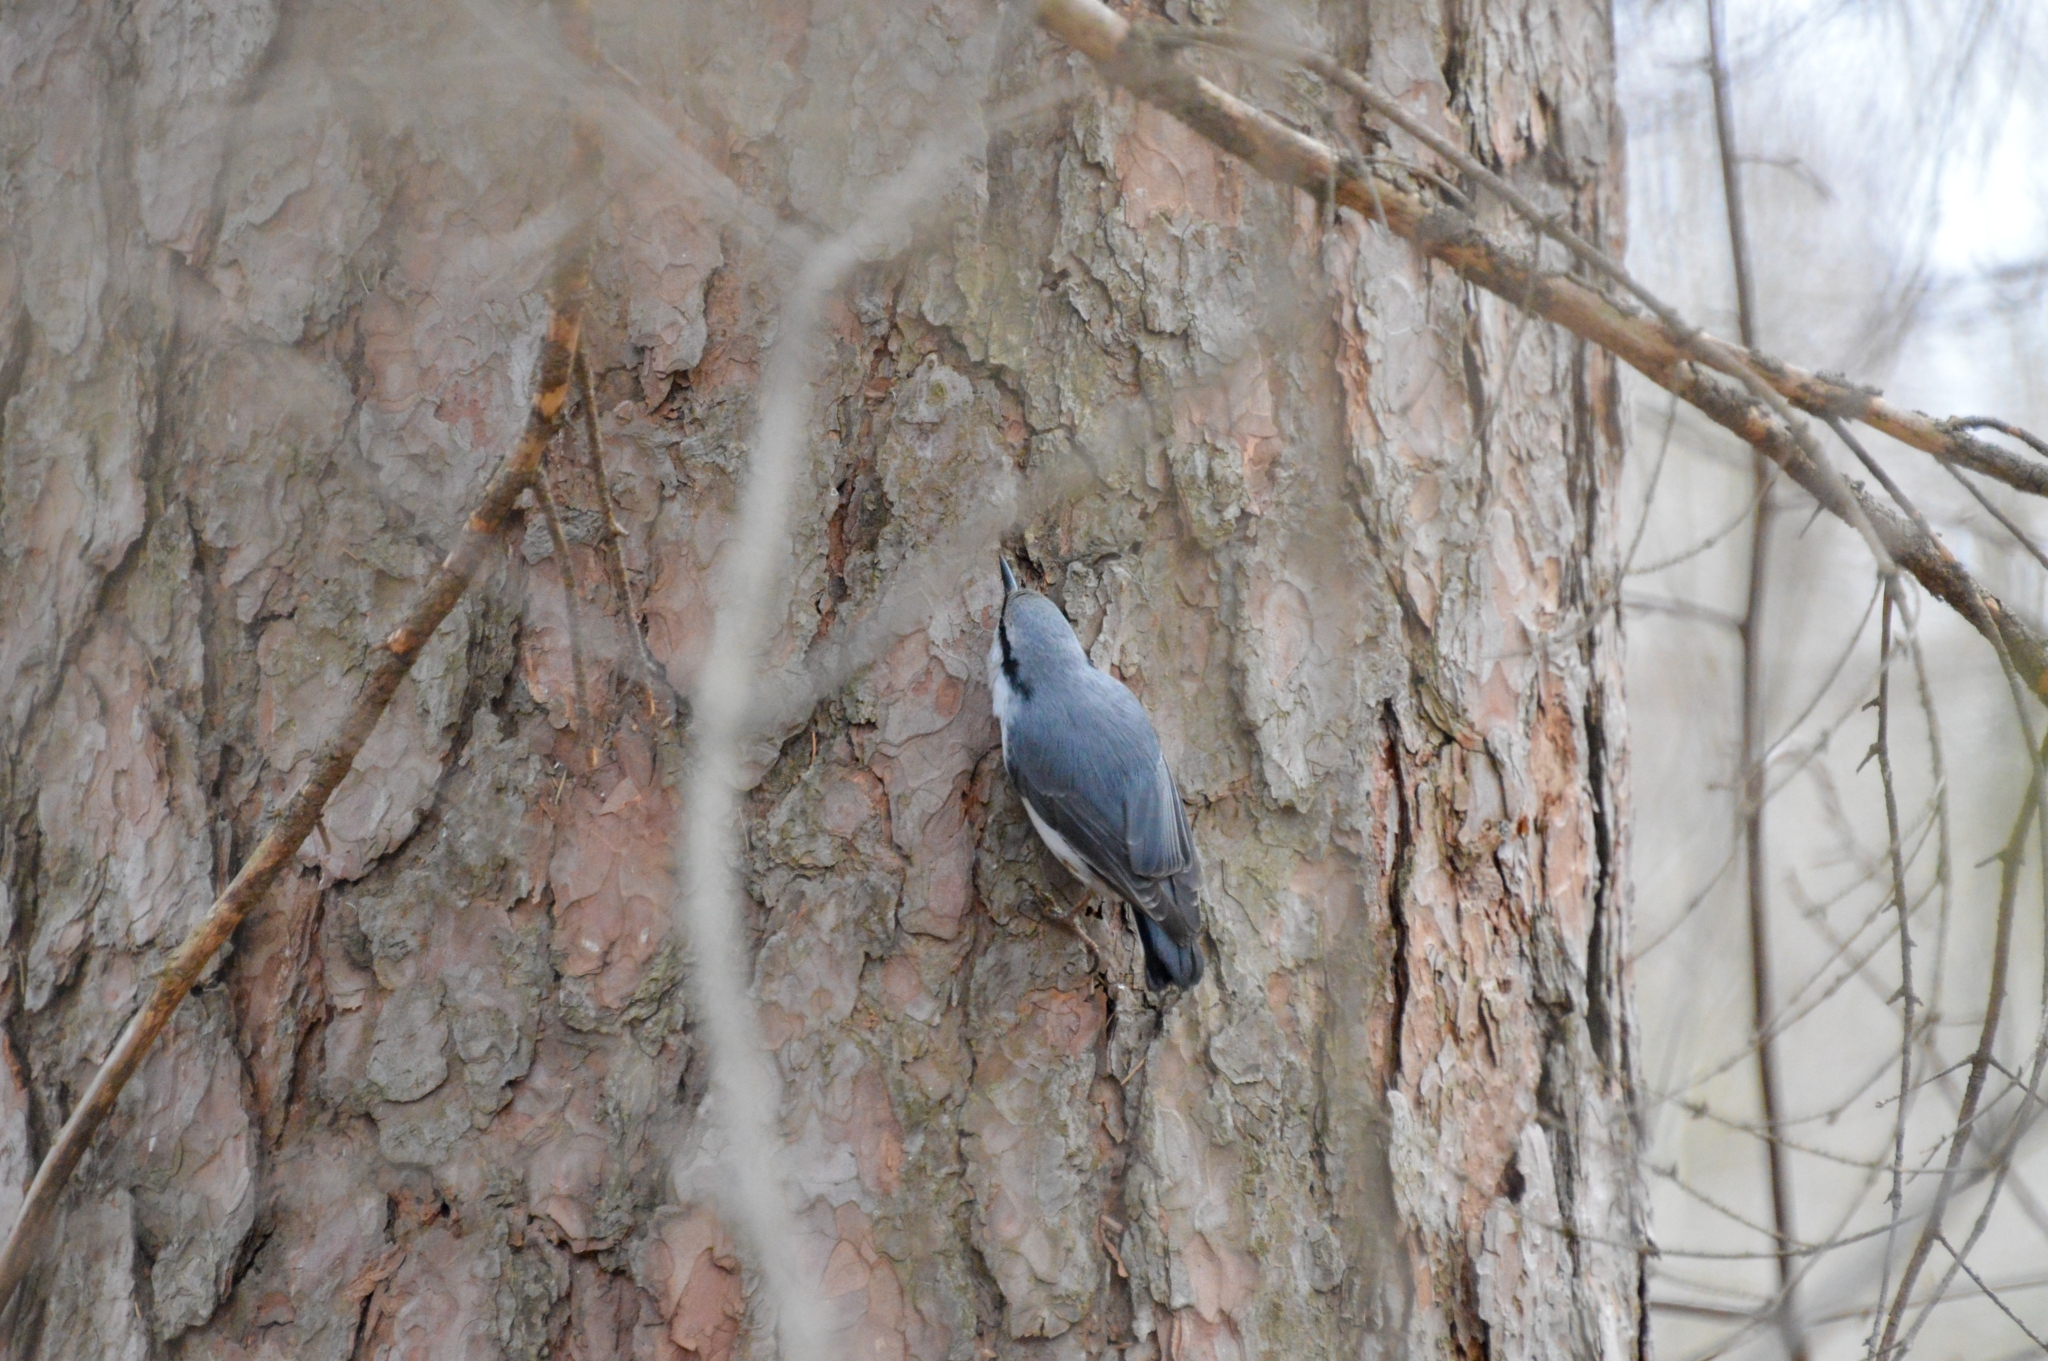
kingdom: Animalia
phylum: Chordata
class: Aves
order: Passeriformes
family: Sittidae
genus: Sitta
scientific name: Sitta europaea
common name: Eurasian nuthatch
